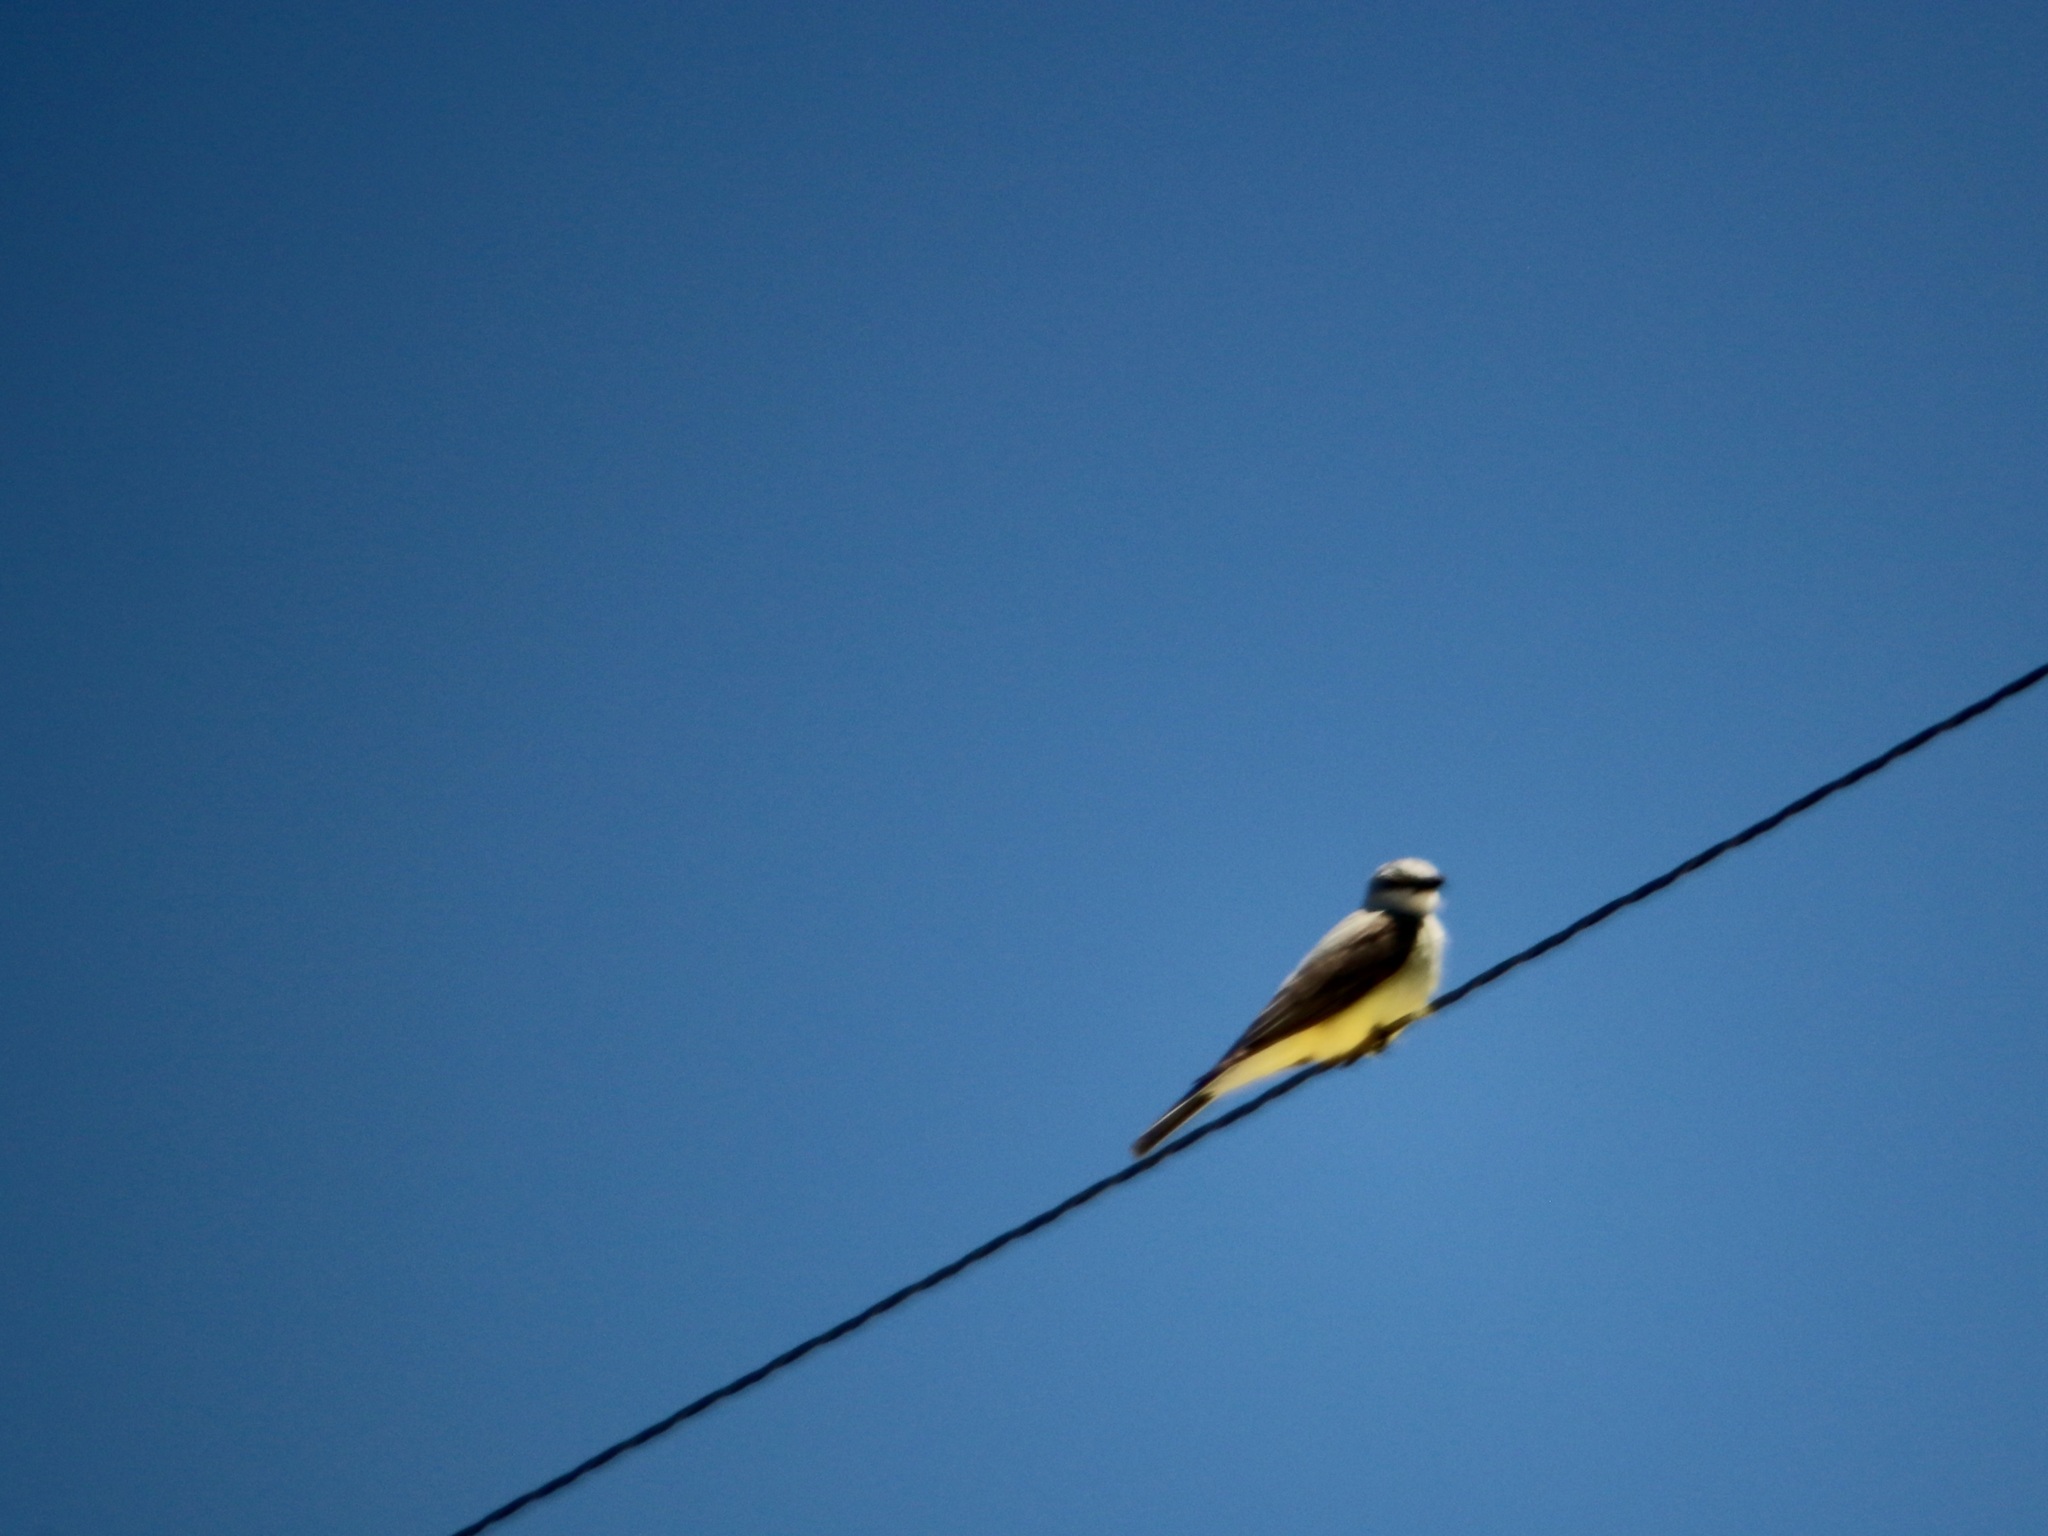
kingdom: Animalia
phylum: Chordata
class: Aves
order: Passeriformes
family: Tyrannidae
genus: Tyrannus
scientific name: Tyrannus verticalis
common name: Western kingbird
